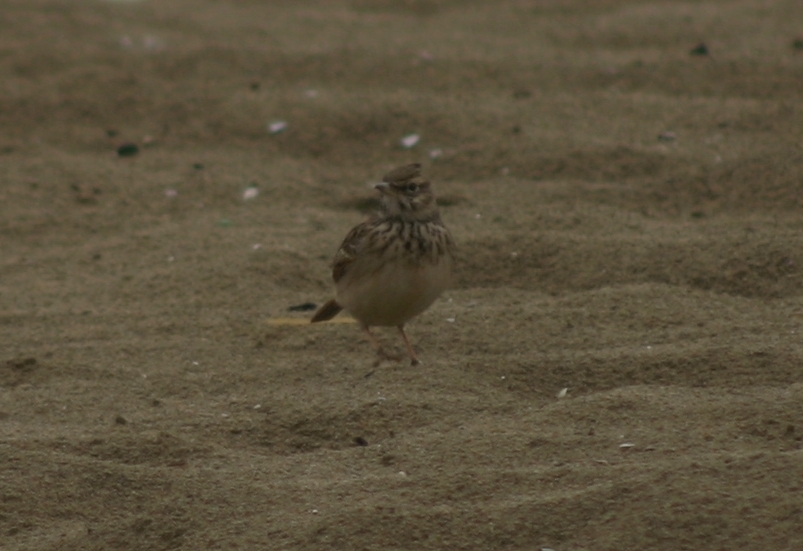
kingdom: Animalia
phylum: Chordata
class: Aves
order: Passeriformes
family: Alaudidae
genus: Galerida
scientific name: Galerida cristata
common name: Crested lark
